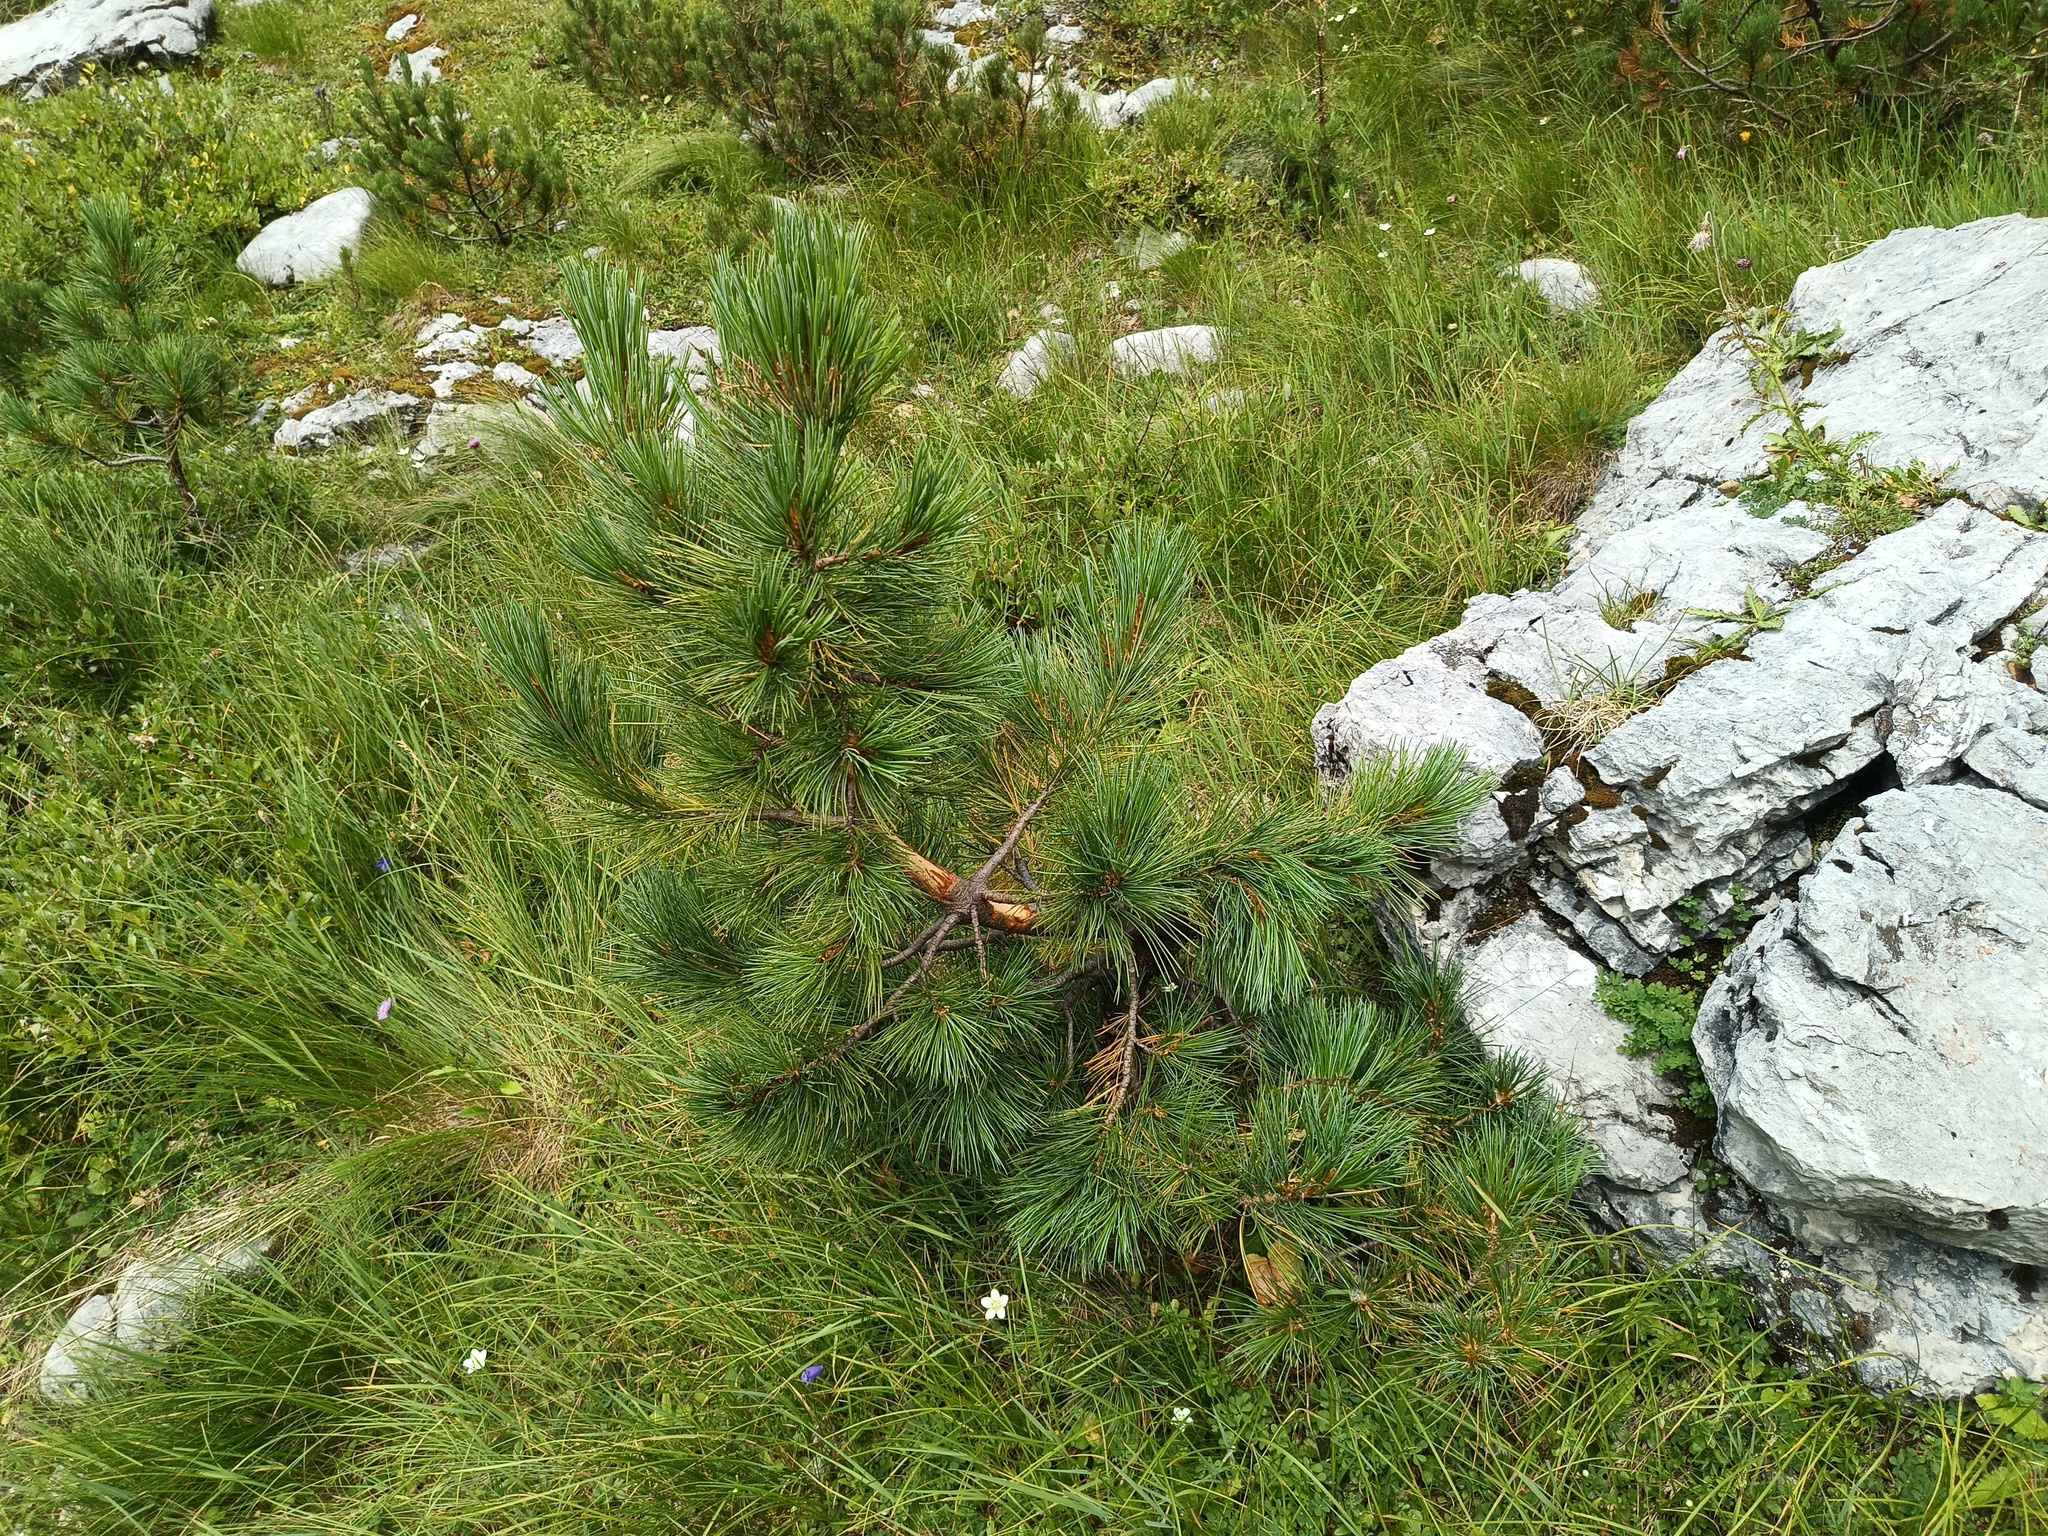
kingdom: Plantae
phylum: Tracheophyta
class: Pinopsida
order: Pinales
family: Pinaceae
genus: Pinus
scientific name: Pinus cembra
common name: Arolla pine
